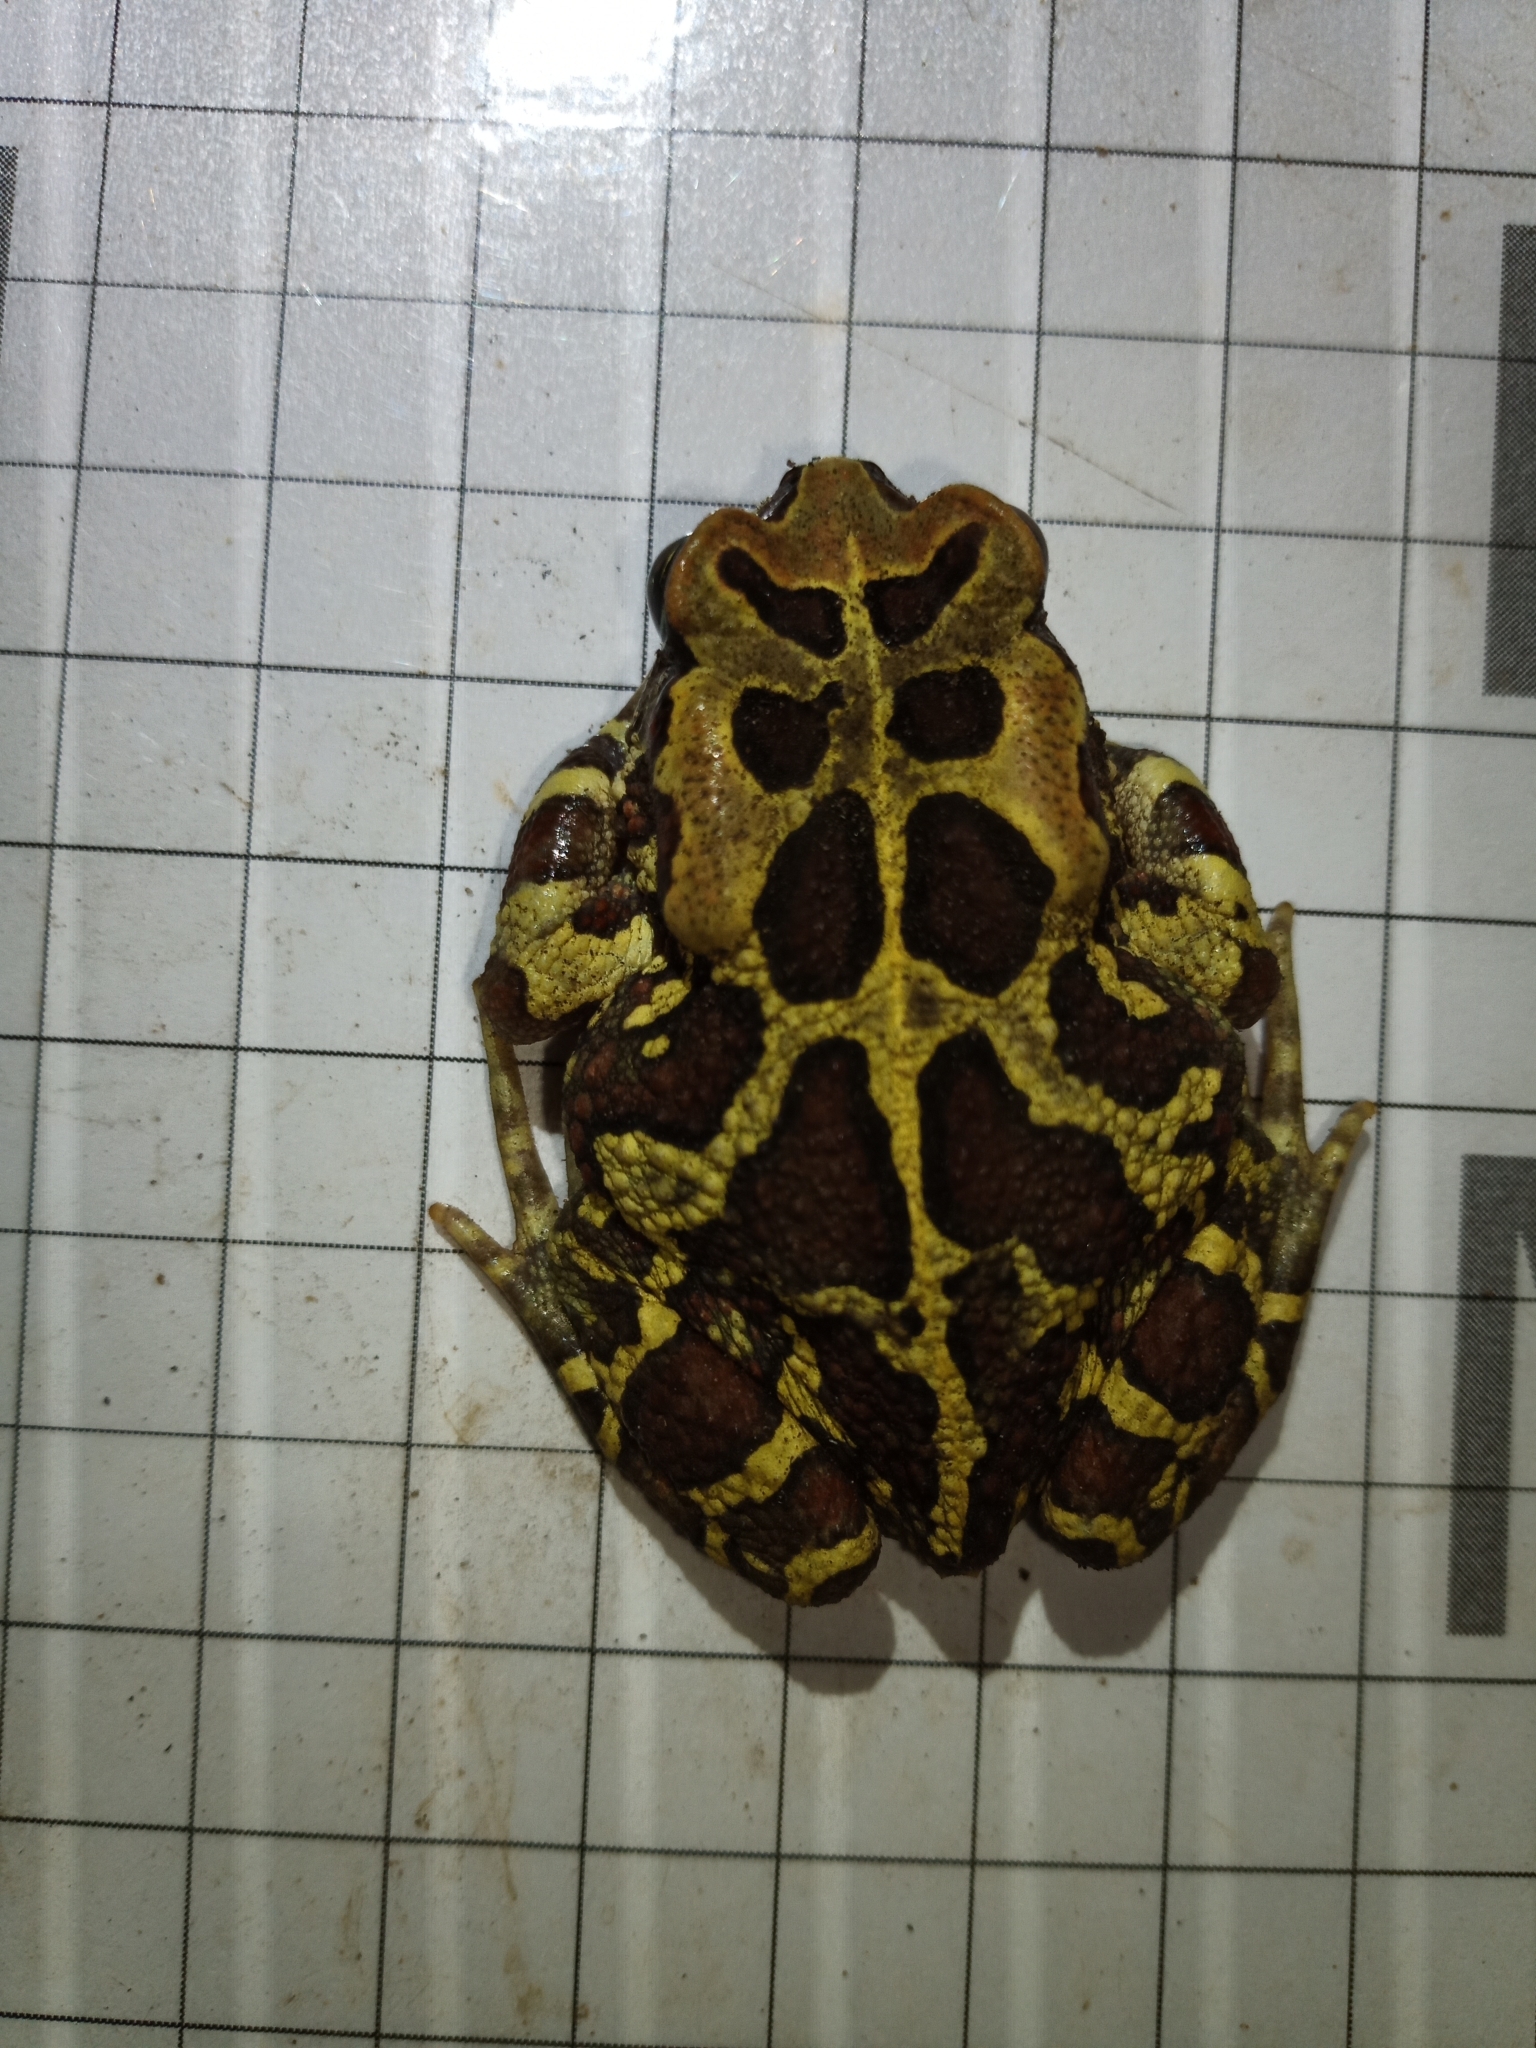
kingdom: Animalia
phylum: Chordata
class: Amphibia
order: Anura
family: Bufonidae
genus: Sclerophrys
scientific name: Sclerophrys pantherina
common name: Panther toad
